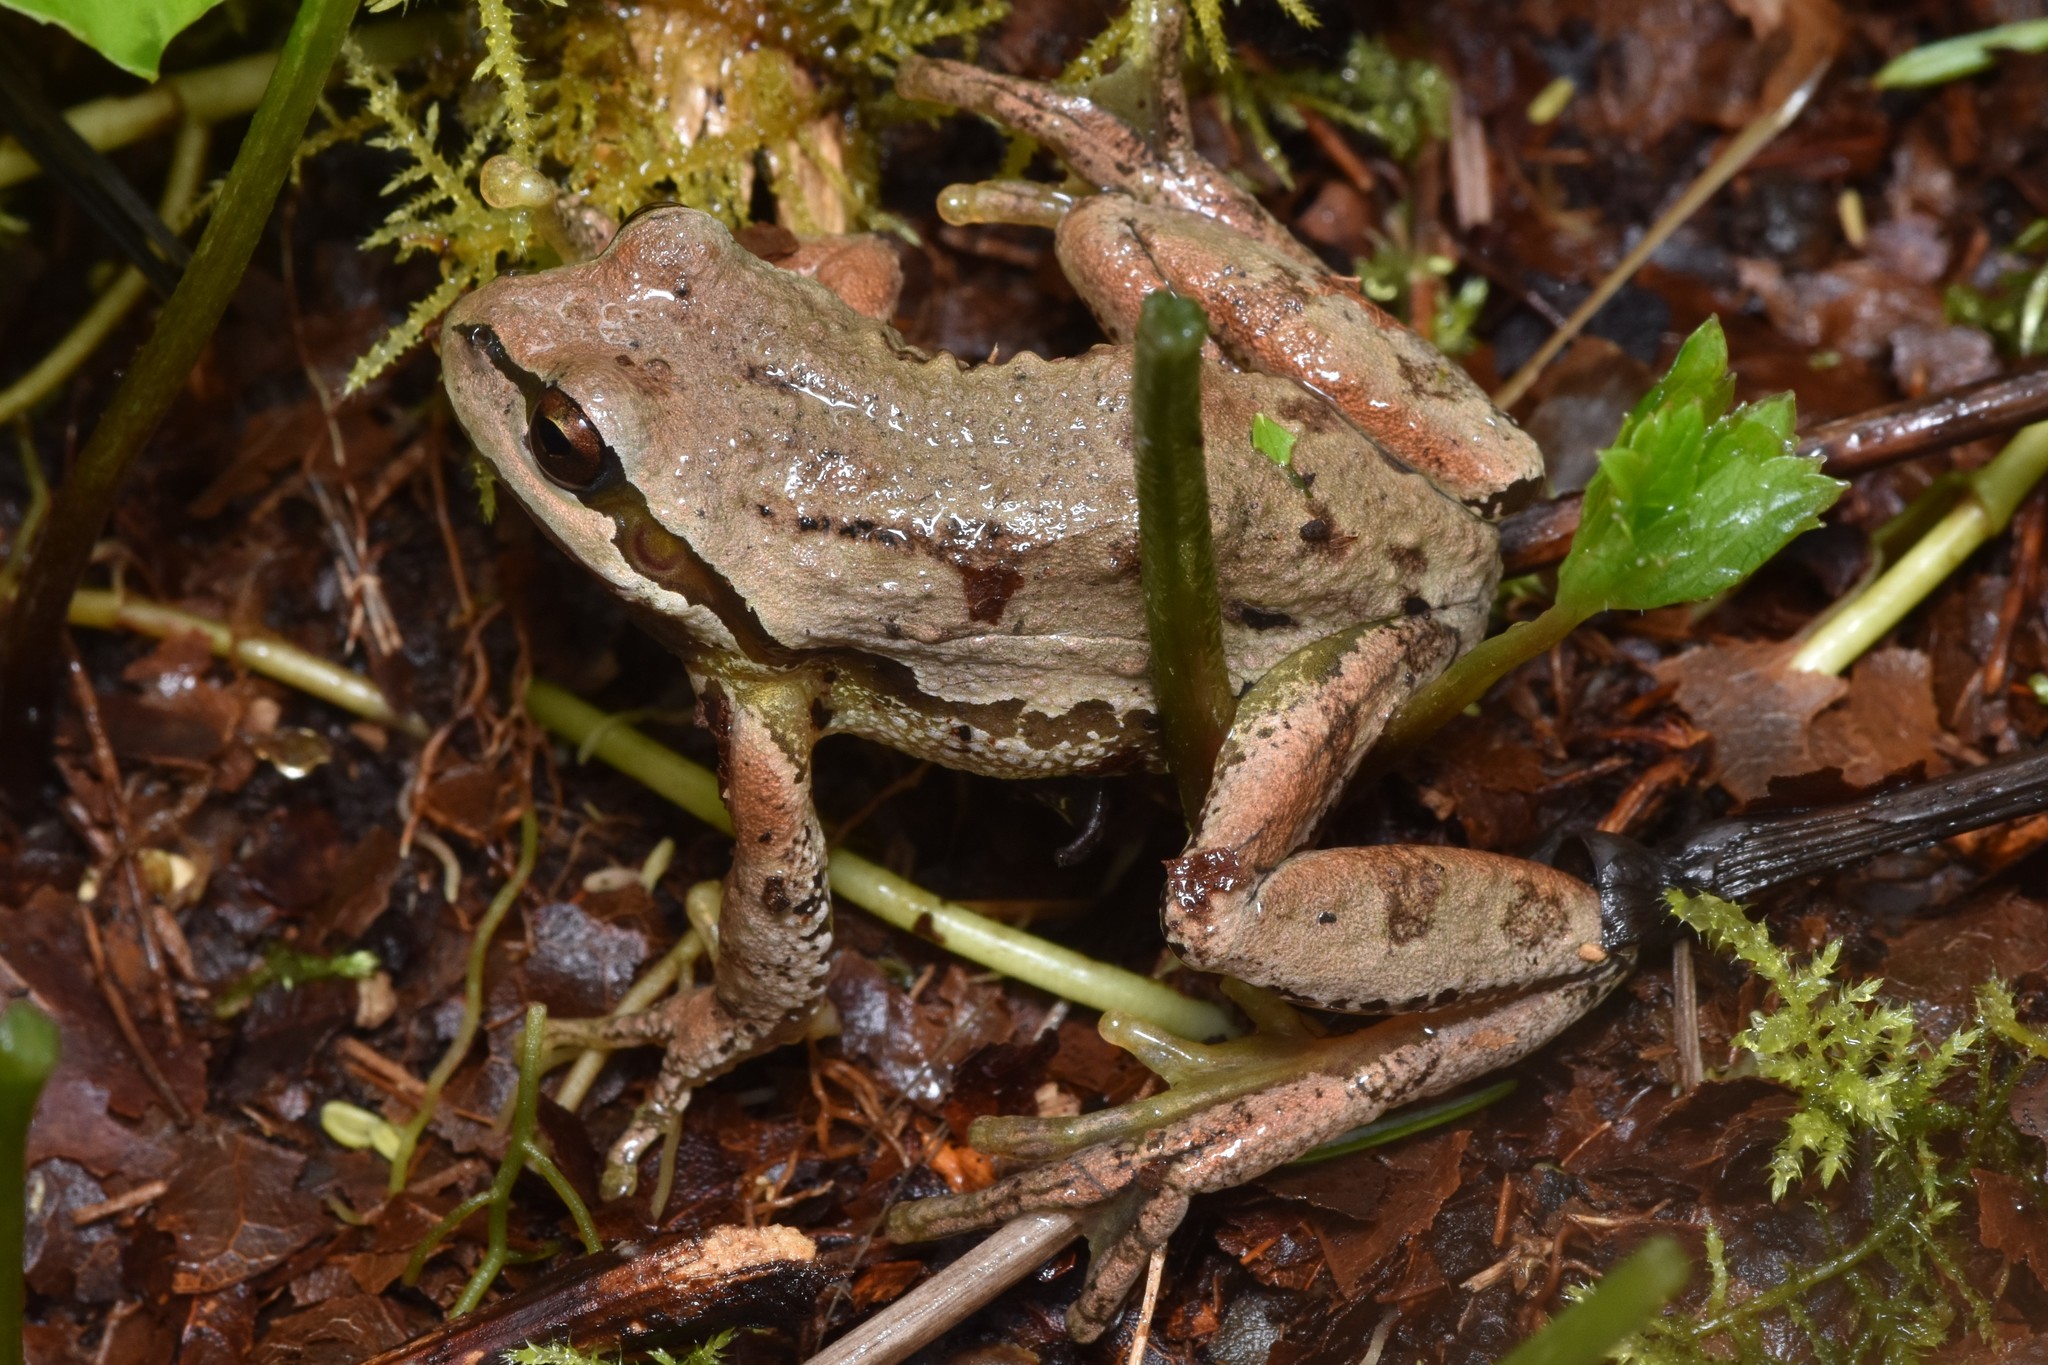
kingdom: Animalia
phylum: Chordata
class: Amphibia
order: Anura
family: Hylidae
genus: Pseudacris
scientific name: Pseudacris regilla
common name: Pacific chorus frog
